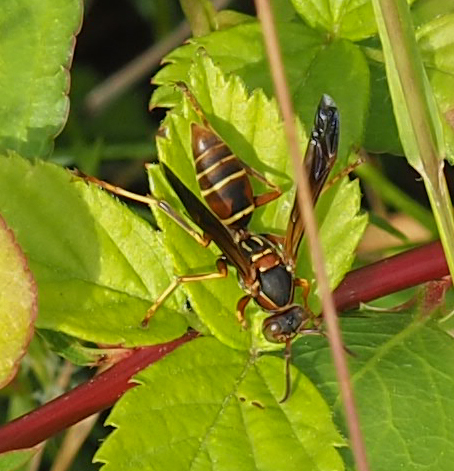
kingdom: Animalia
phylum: Arthropoda
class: Insecta
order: Hymenoptera
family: Eumenidae
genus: Polistes
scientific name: Polistes fuscatus
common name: Dark paper wasp
